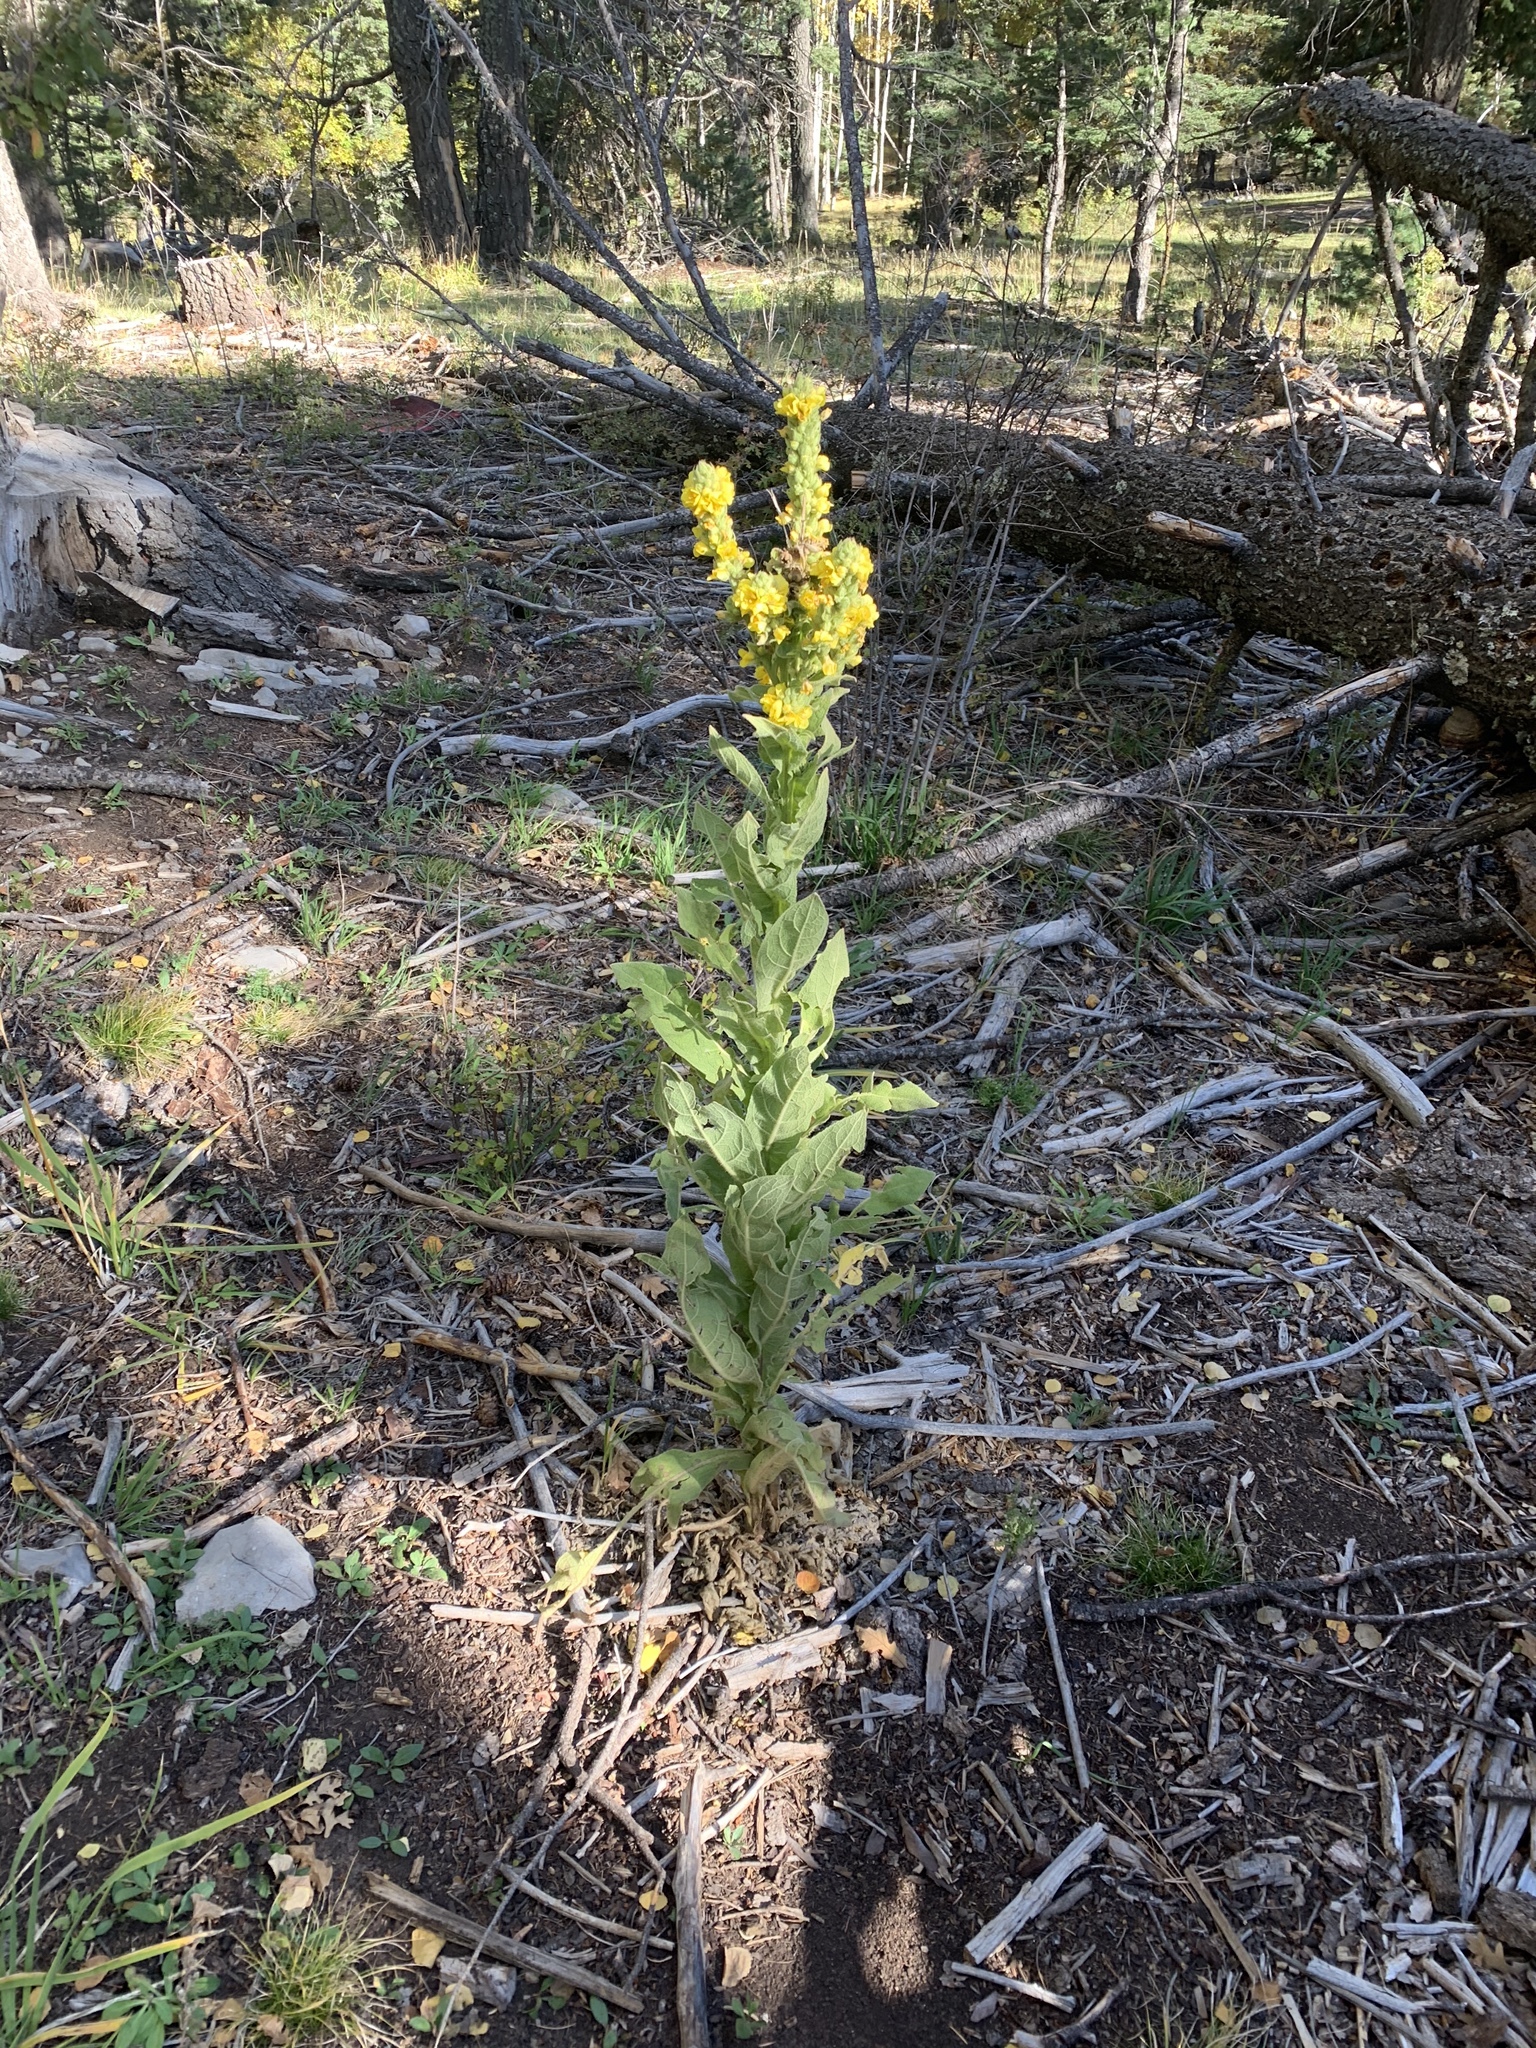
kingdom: Plantae
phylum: Tracheophyta
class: Magnoliopsida
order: Lamiales
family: Scrophulariaceae
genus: Verbascum
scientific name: Verbascum thapsus
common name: Common mullein
